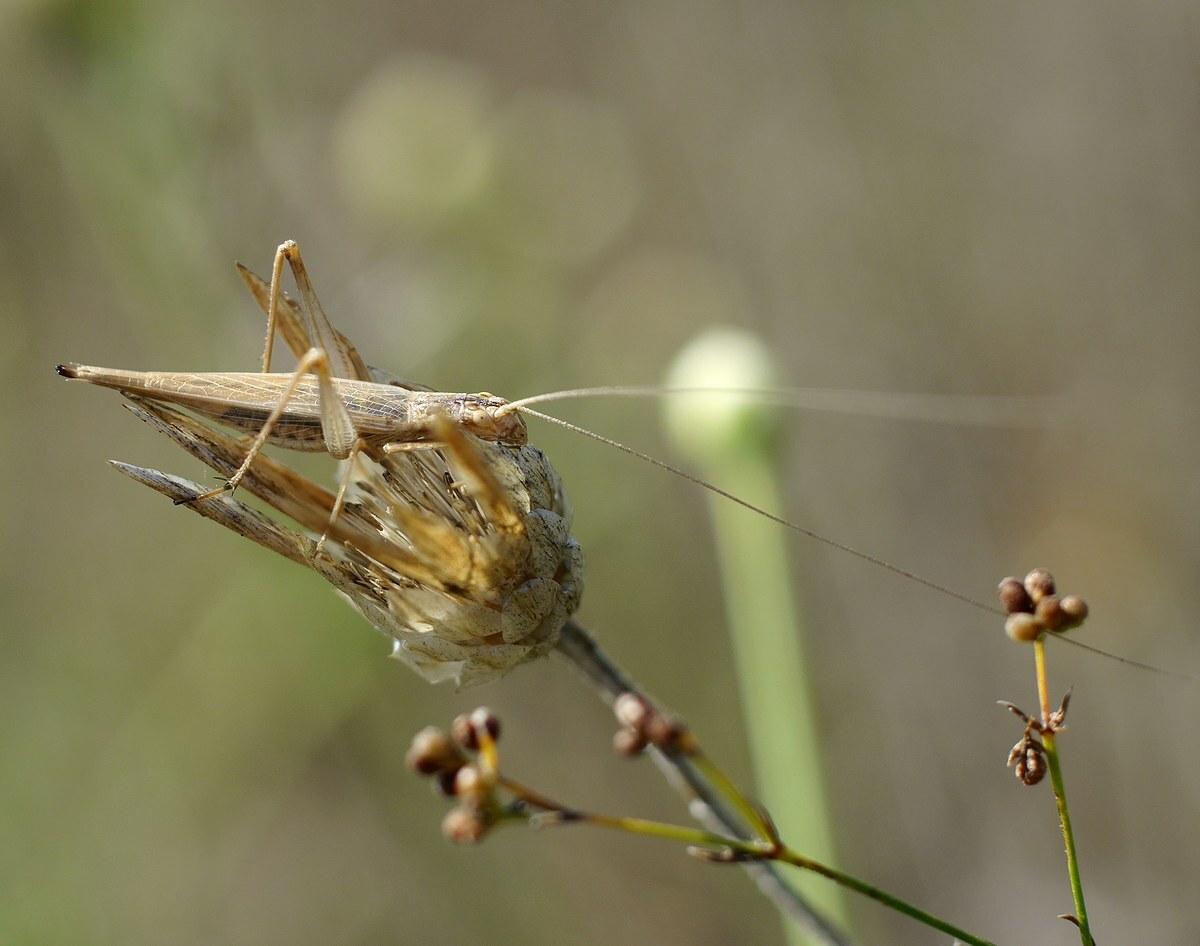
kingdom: Animalia
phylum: Arthropoda
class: Insecta
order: Orthoptera
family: Gryllidae
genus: Oecanthus
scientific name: Oecanthus pellucens
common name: Tree-cricket
